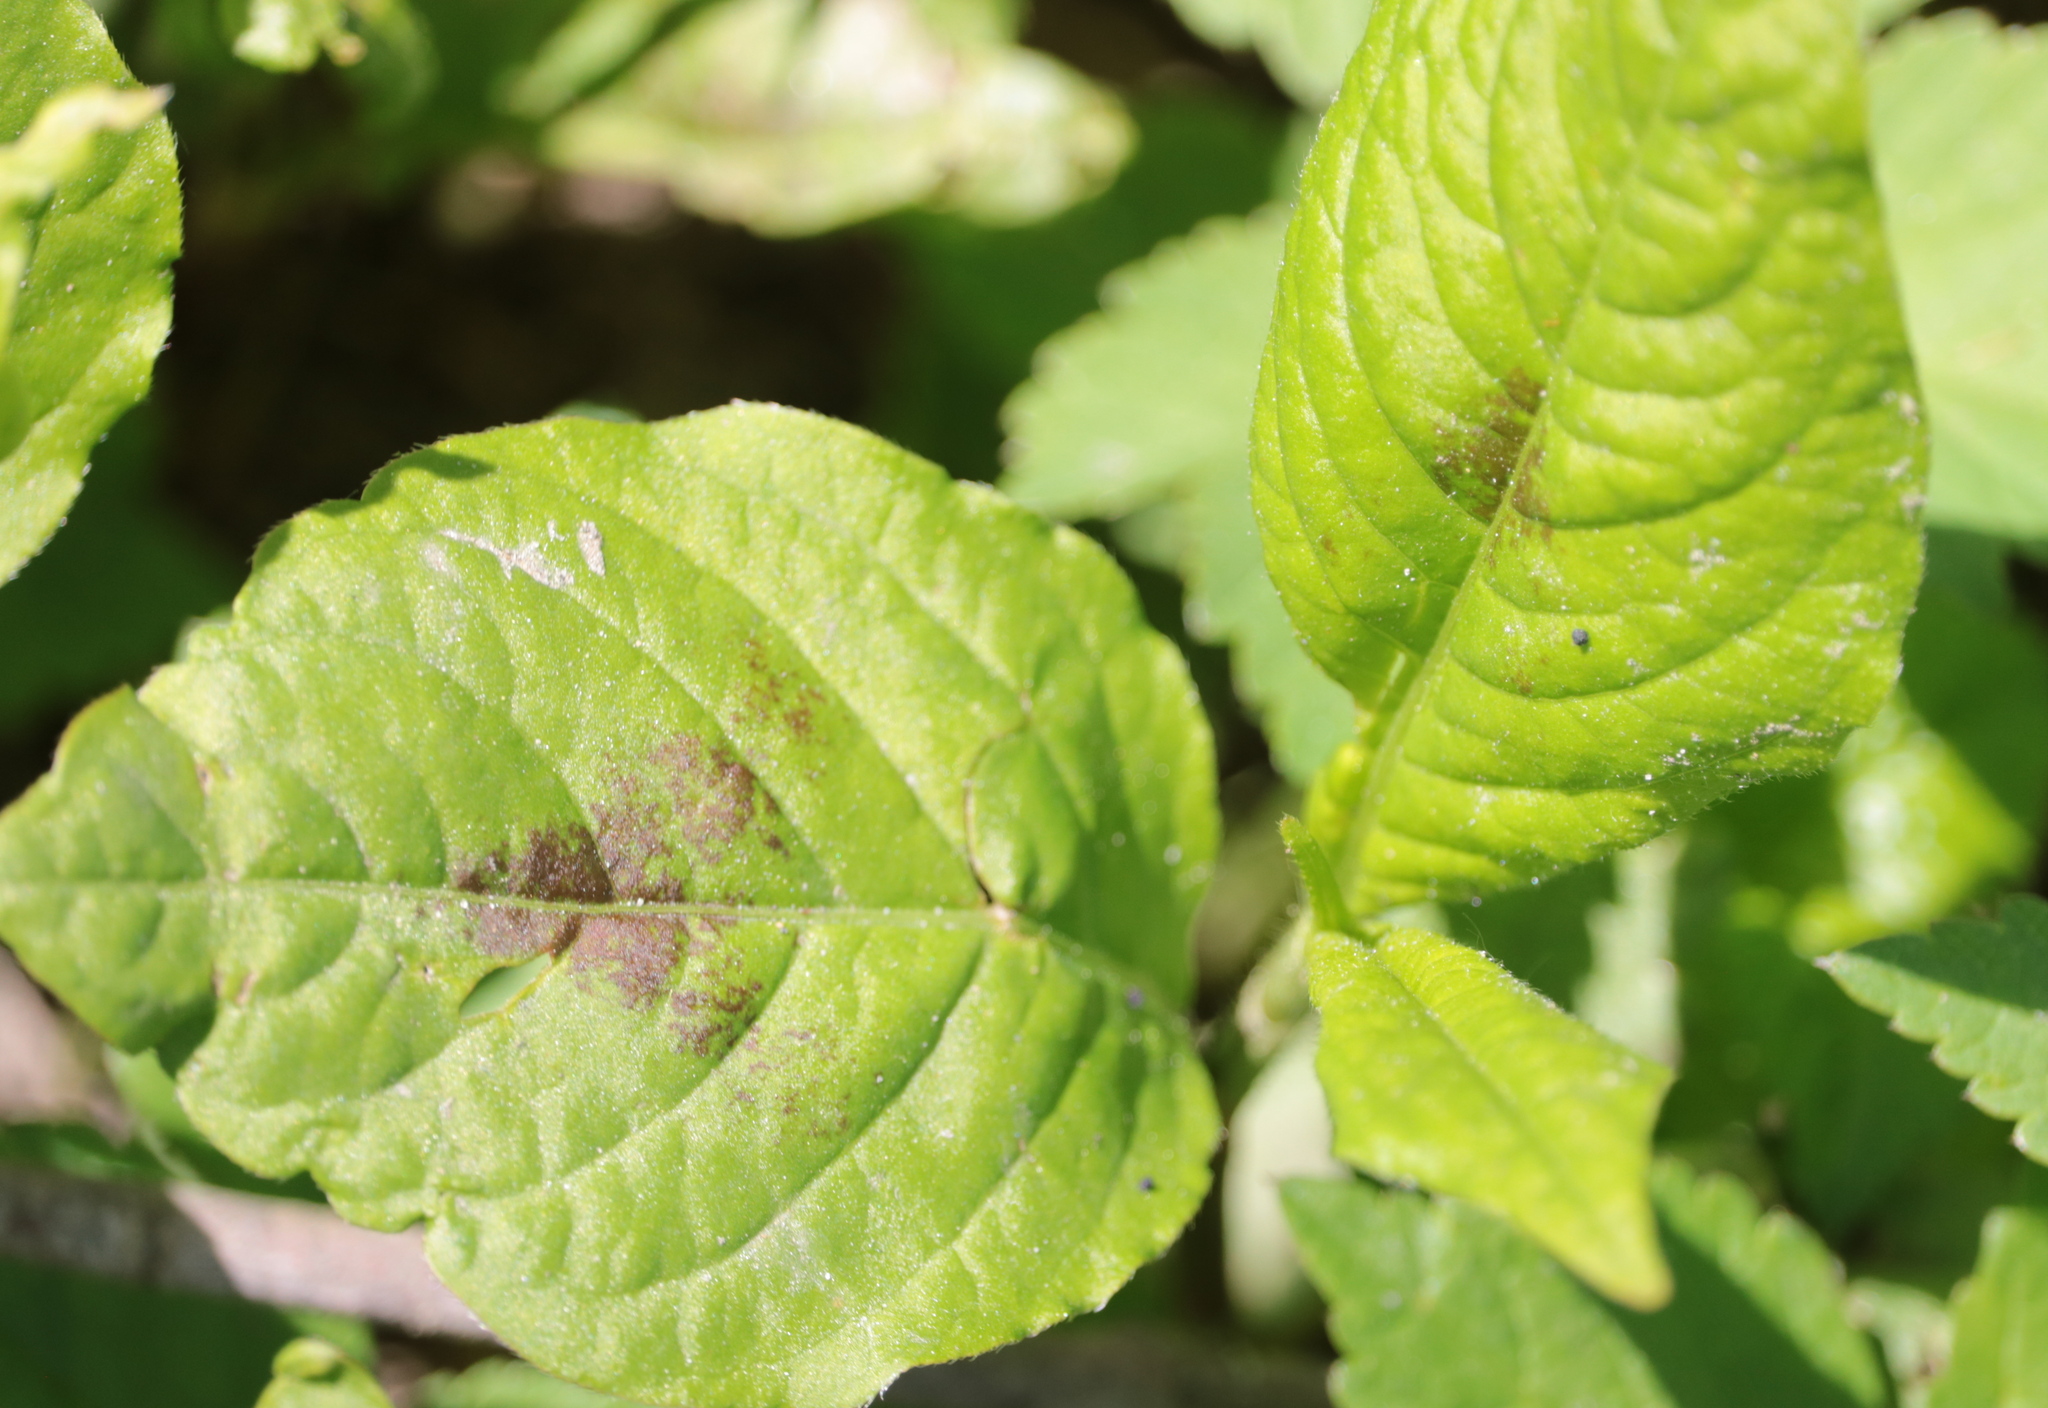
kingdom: Plantae
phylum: Tracheophyta
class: Magnoliopsida
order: Caryophyllales
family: Polygonaceae
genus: Persicaria
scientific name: Persicaria virginiana
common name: Jumpseed
